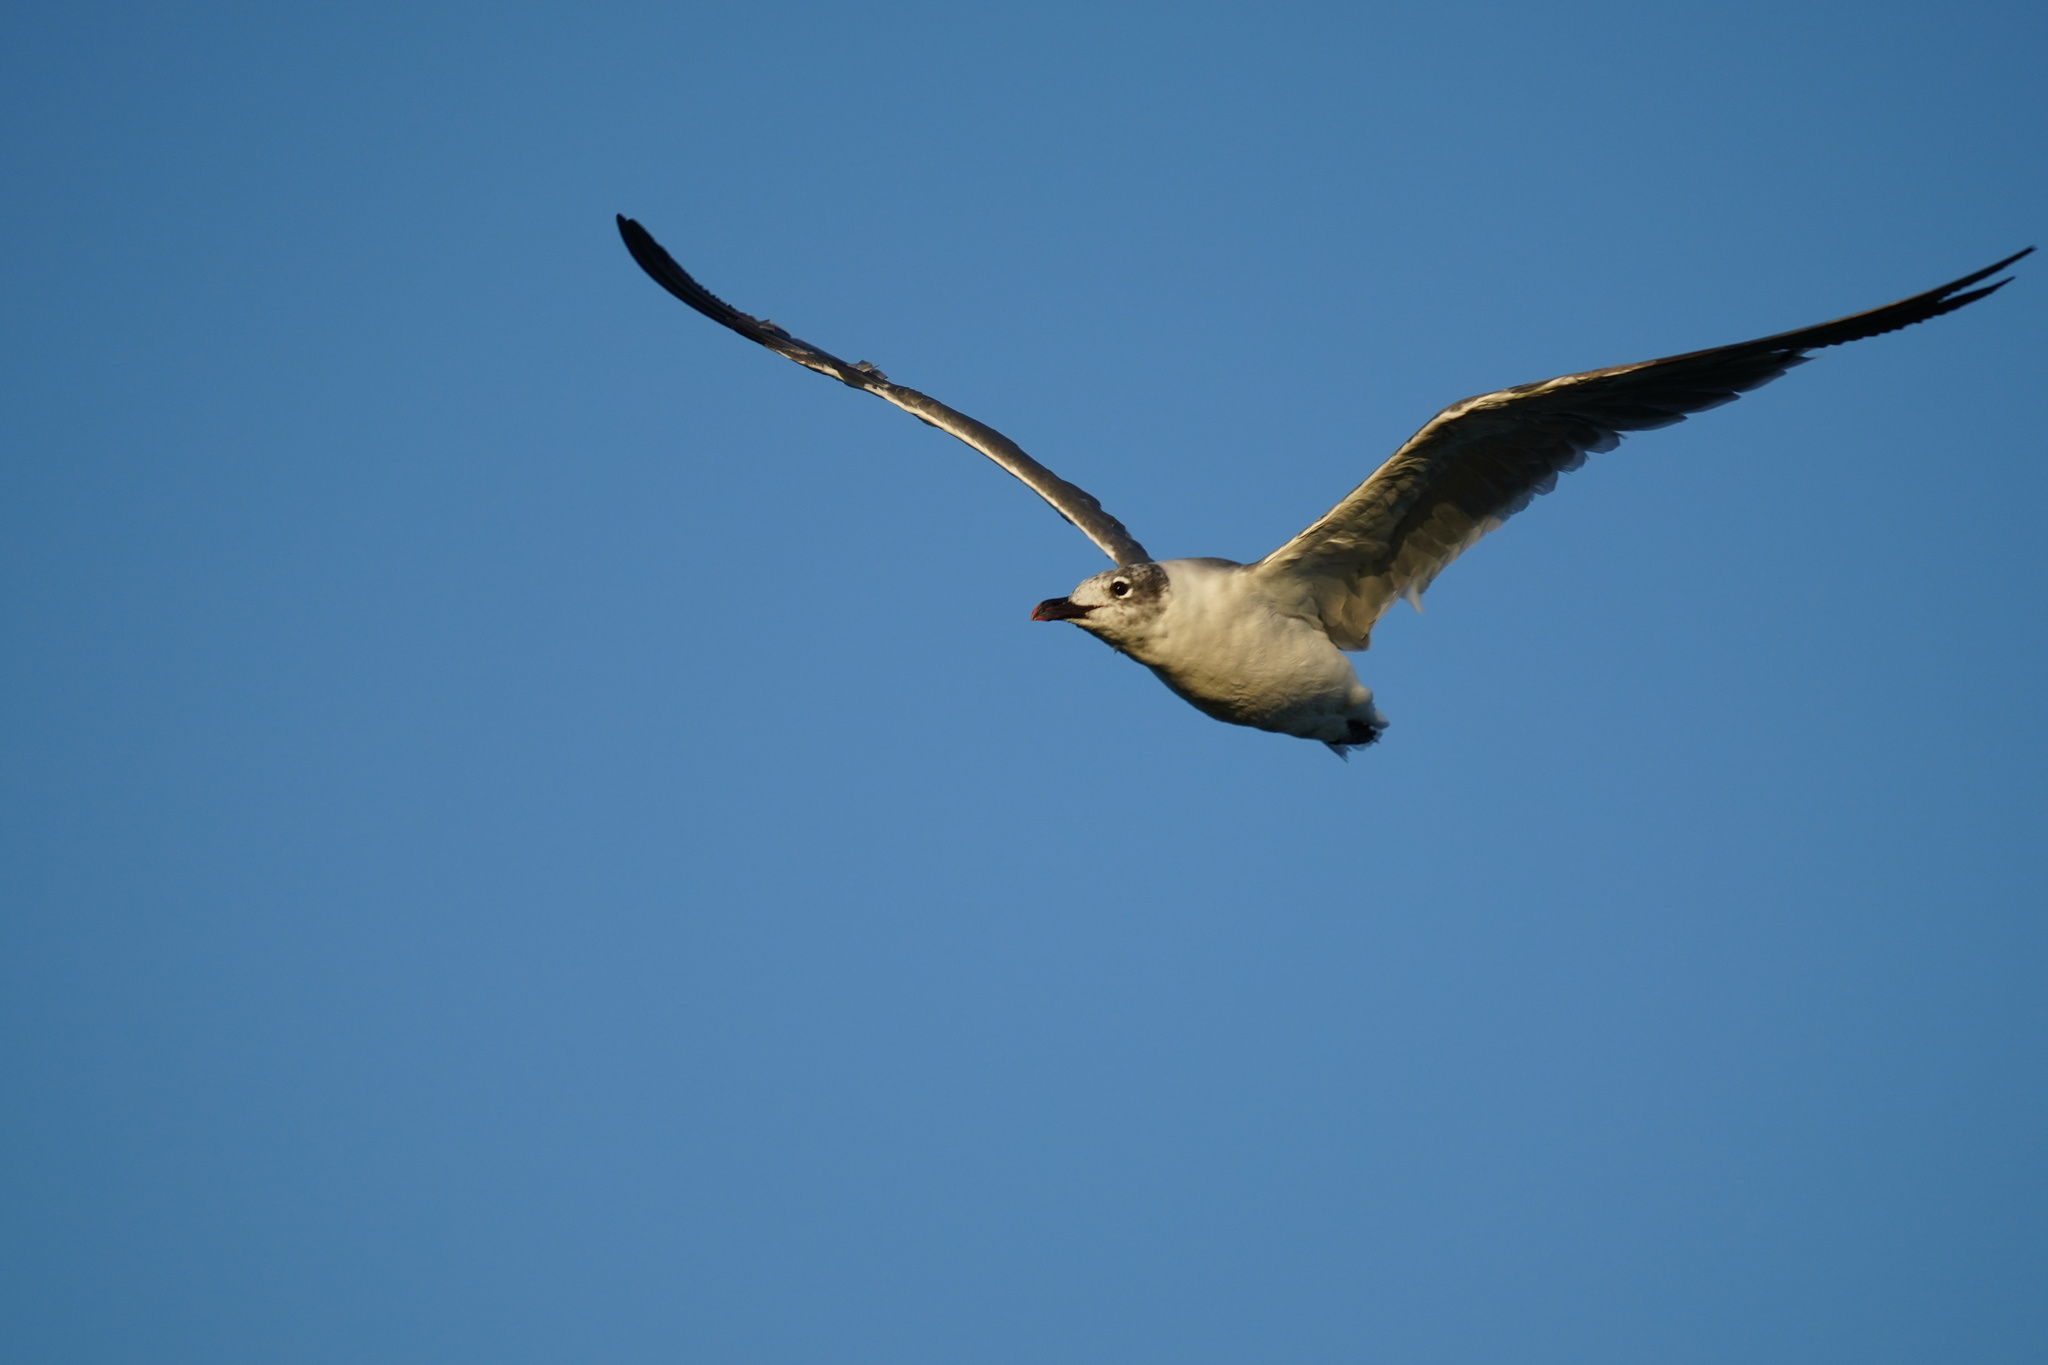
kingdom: Animalia
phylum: Chordata
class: Aves
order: Charadriiformes
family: Laridae
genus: Leucophaeus
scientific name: Leucophaeus atricilla
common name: Laughing gull
